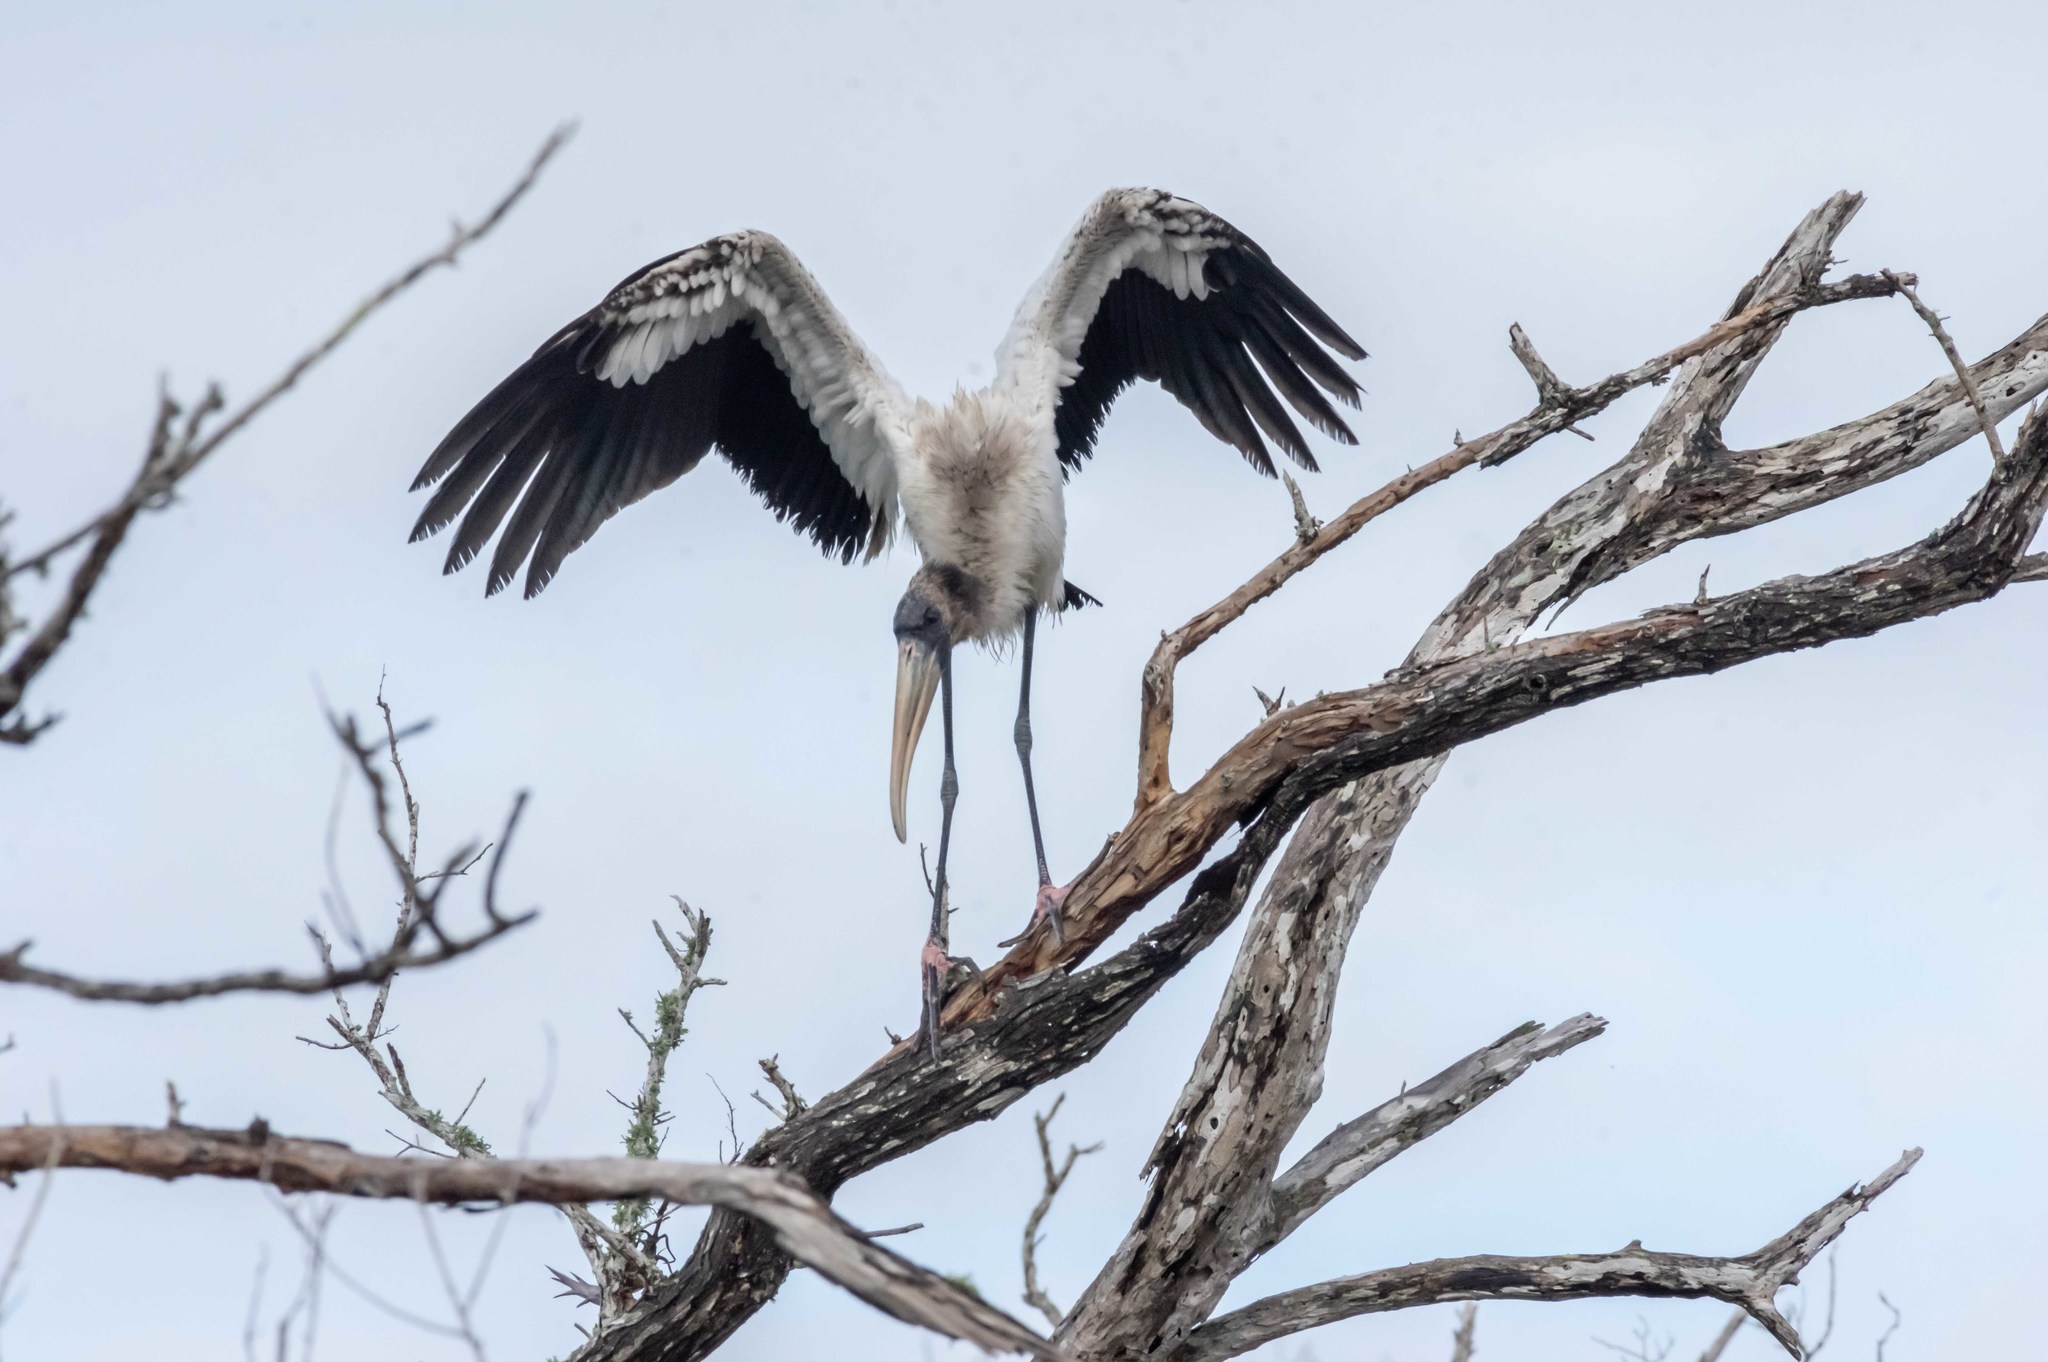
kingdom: Animalia
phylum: Chordata
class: Aves
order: Ciconiiformes
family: Ciconiidae
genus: Mycteria
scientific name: Mycteria americana
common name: Wood stork
